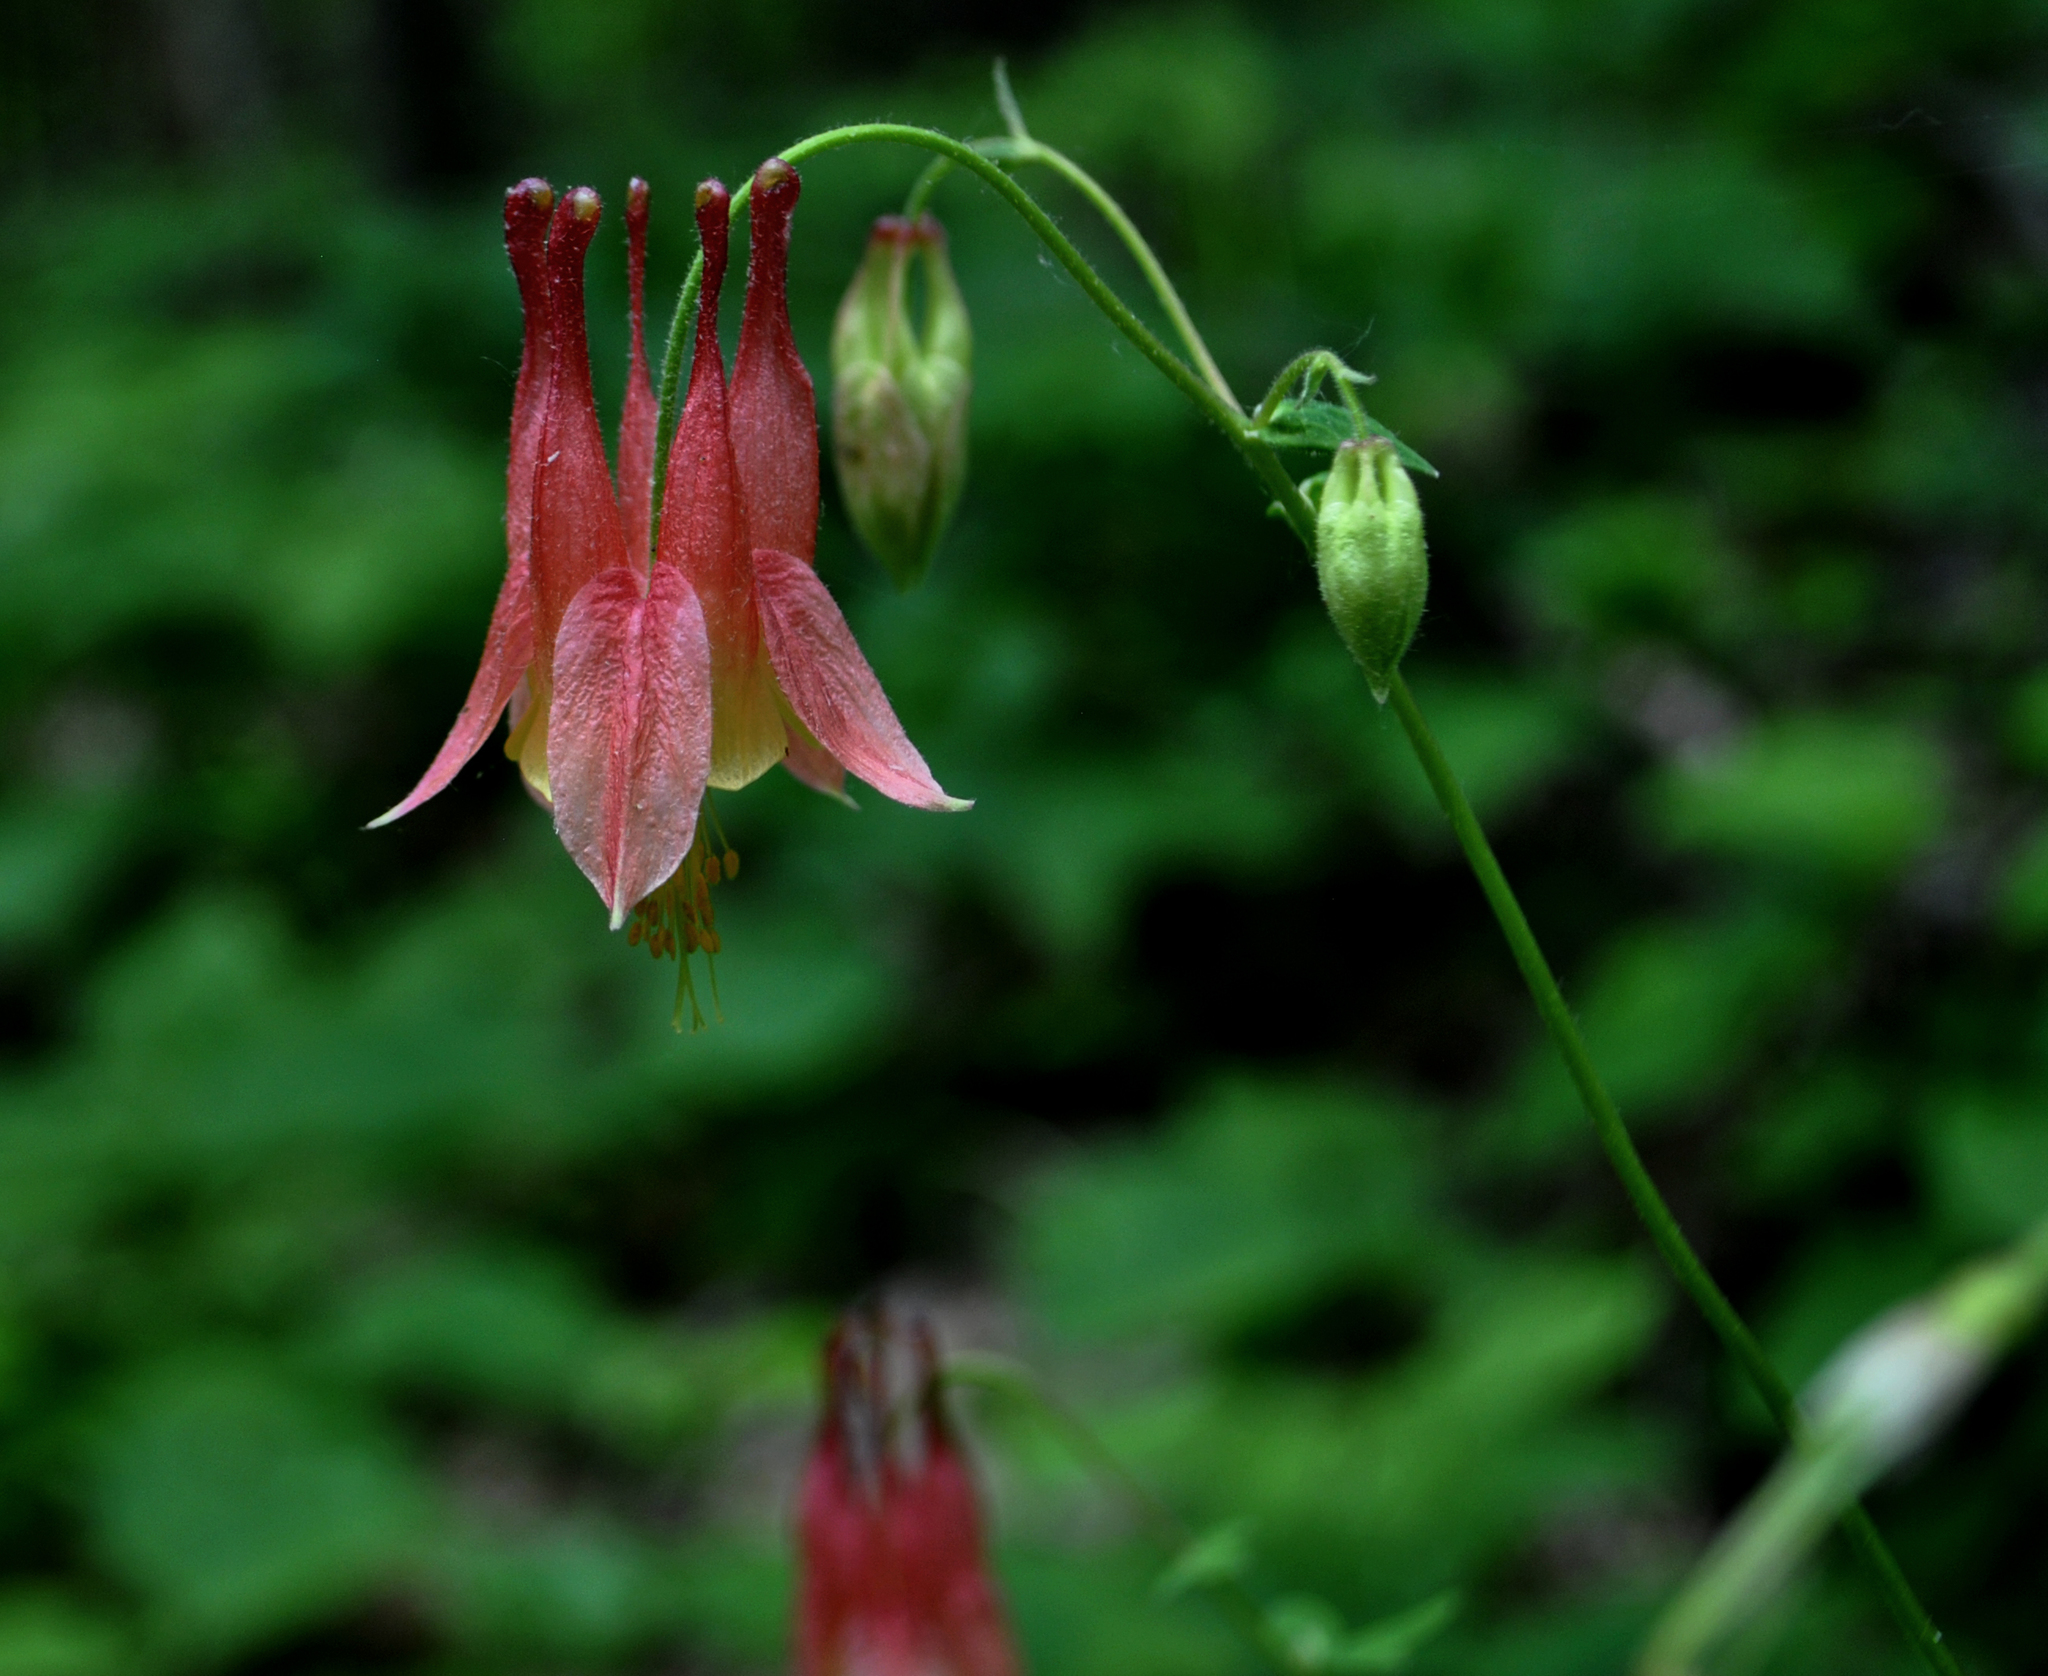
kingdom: Plantae
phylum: Tracheophyta
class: Magnoliopsida
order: Ranunculales
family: Ranunculaceae
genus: Aquilegia
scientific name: Aquilegia canadensis
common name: American columbine
